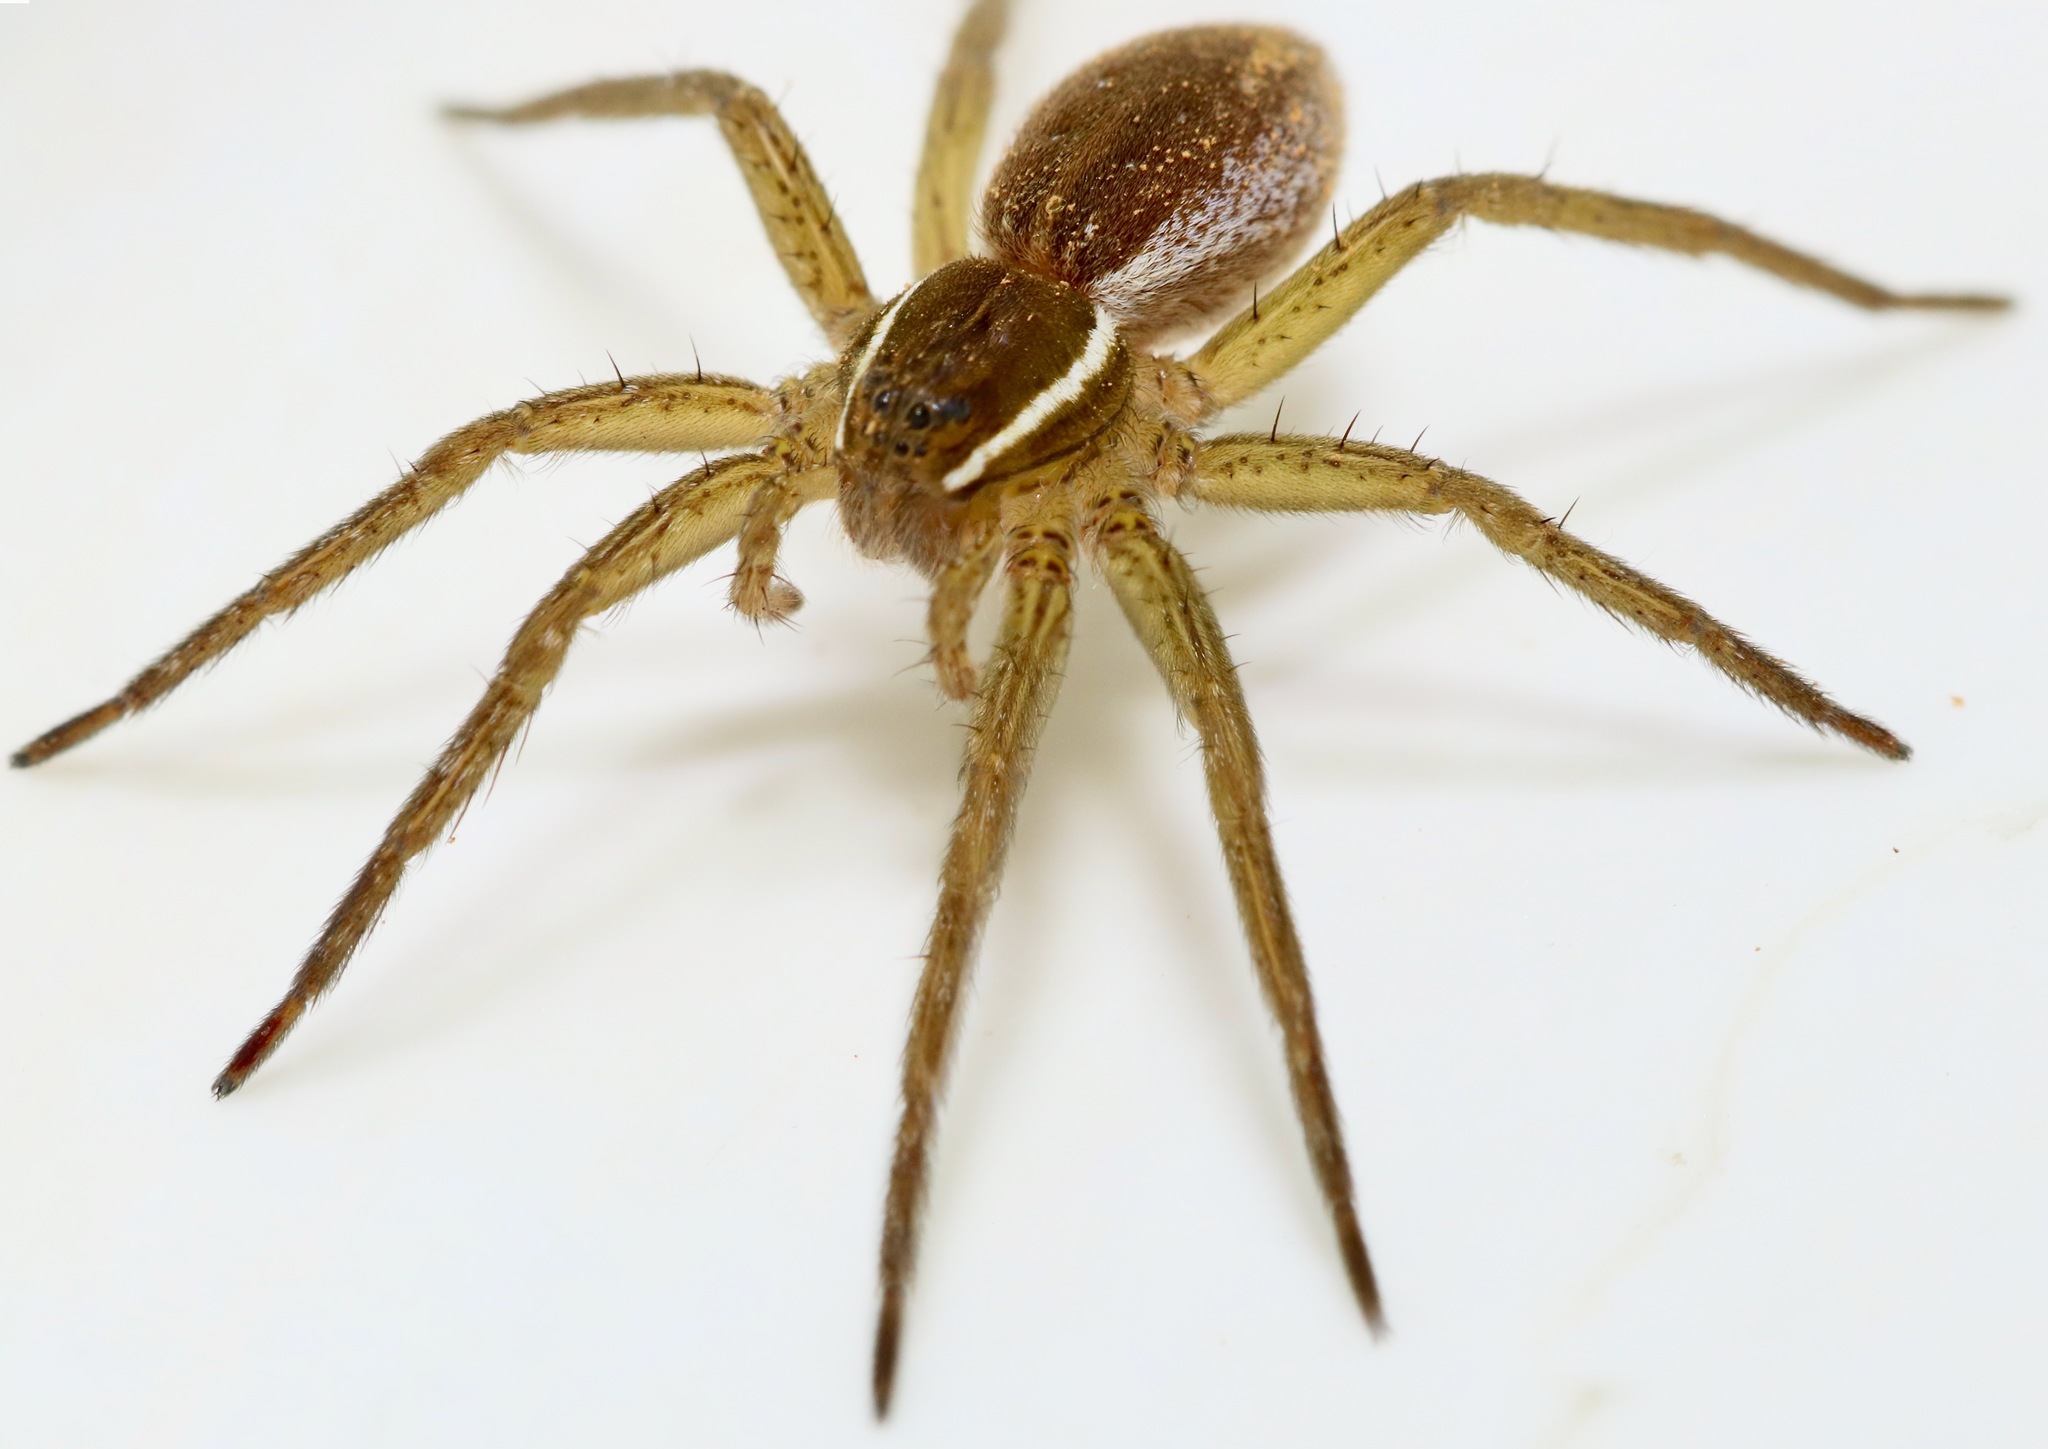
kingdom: Animalia
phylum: Arthropoda
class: Arachnida
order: Araneae
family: Pisauridae
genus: Dolomedes
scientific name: Dolomedes triton
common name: Six-spotted fishing spider
